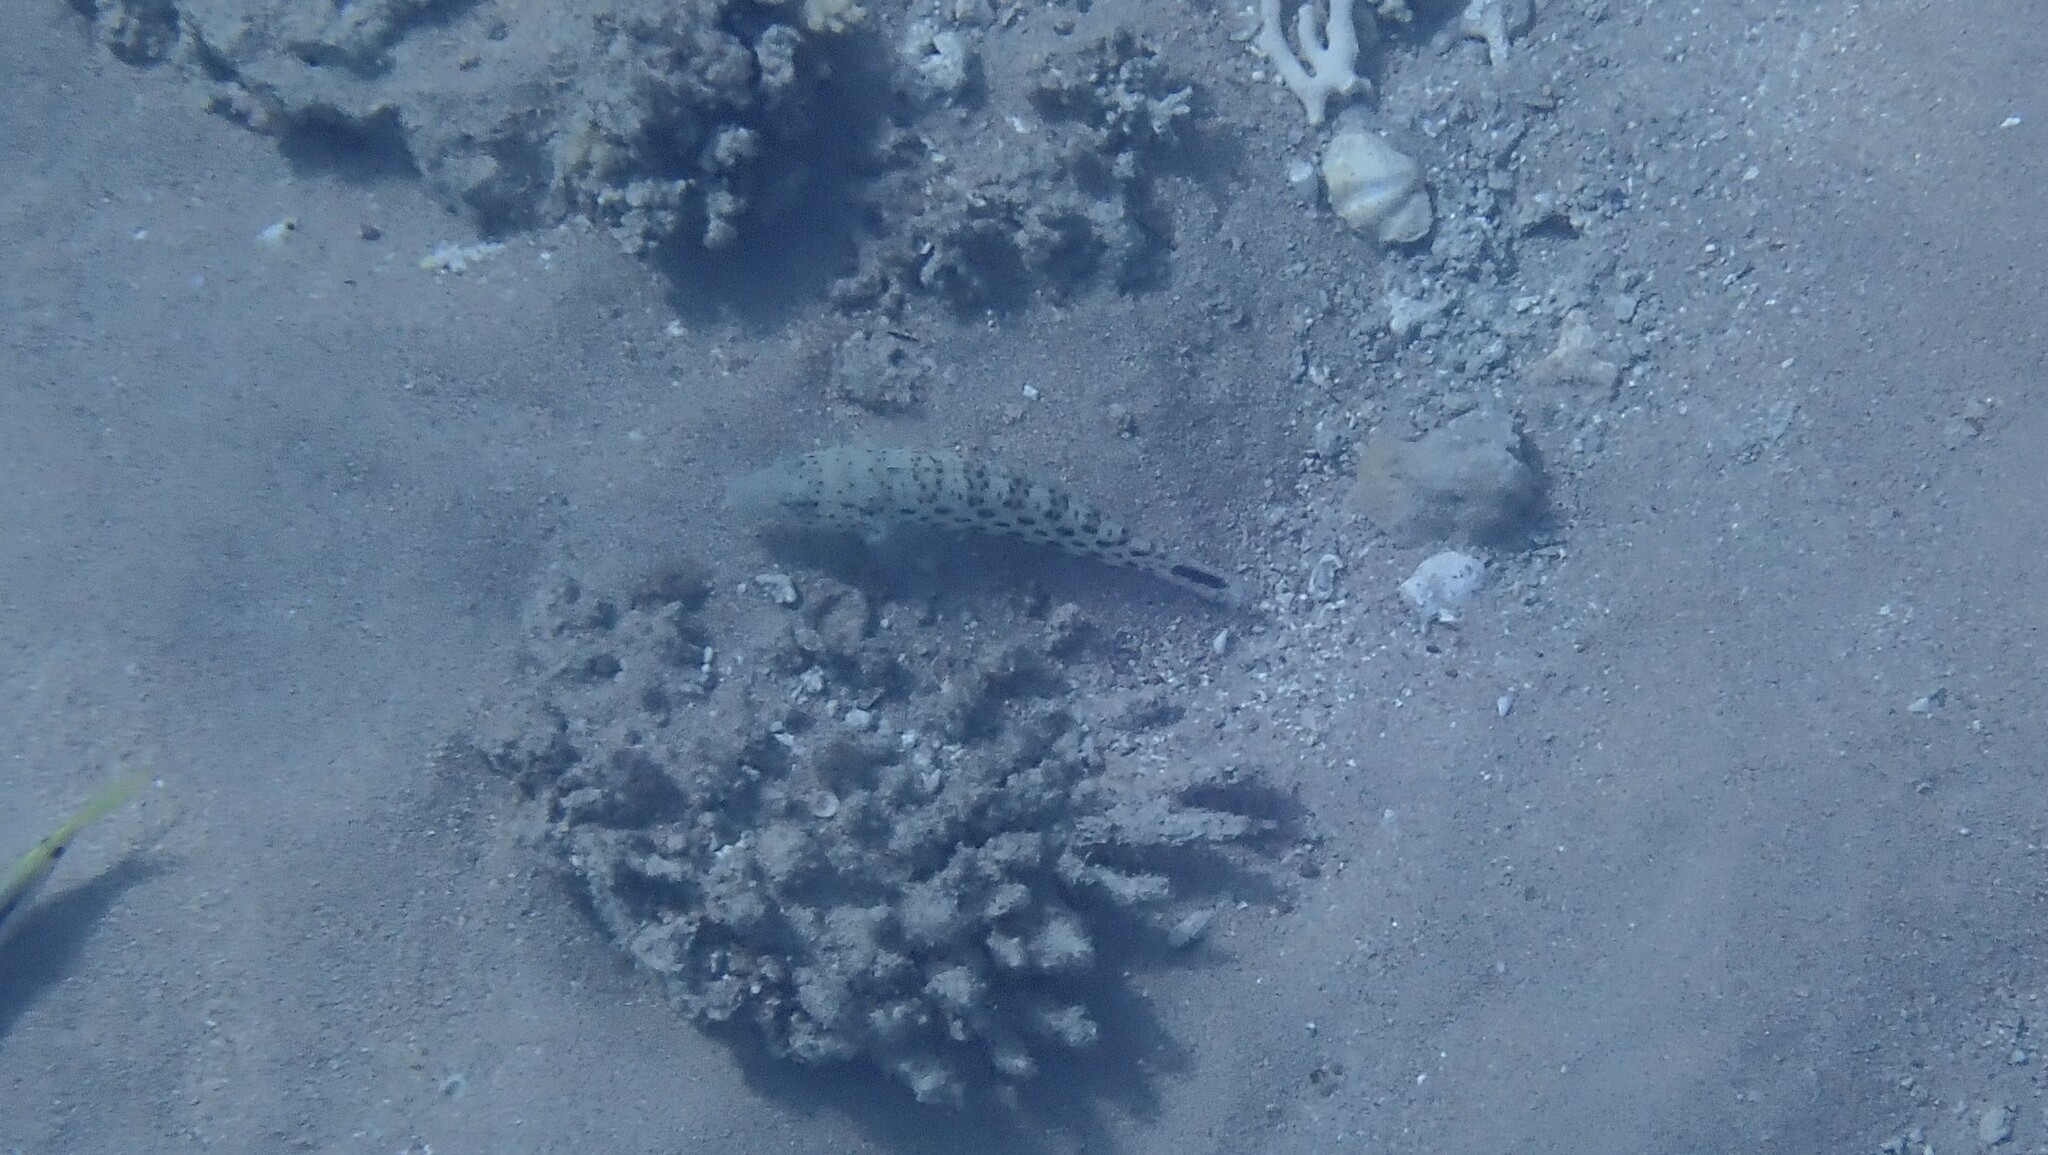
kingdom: Animalia
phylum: Chordata
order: Perciformes
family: Pinguipedidae
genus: Parapercis
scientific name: Parapercis hexophtalma
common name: Speckled sandperch
